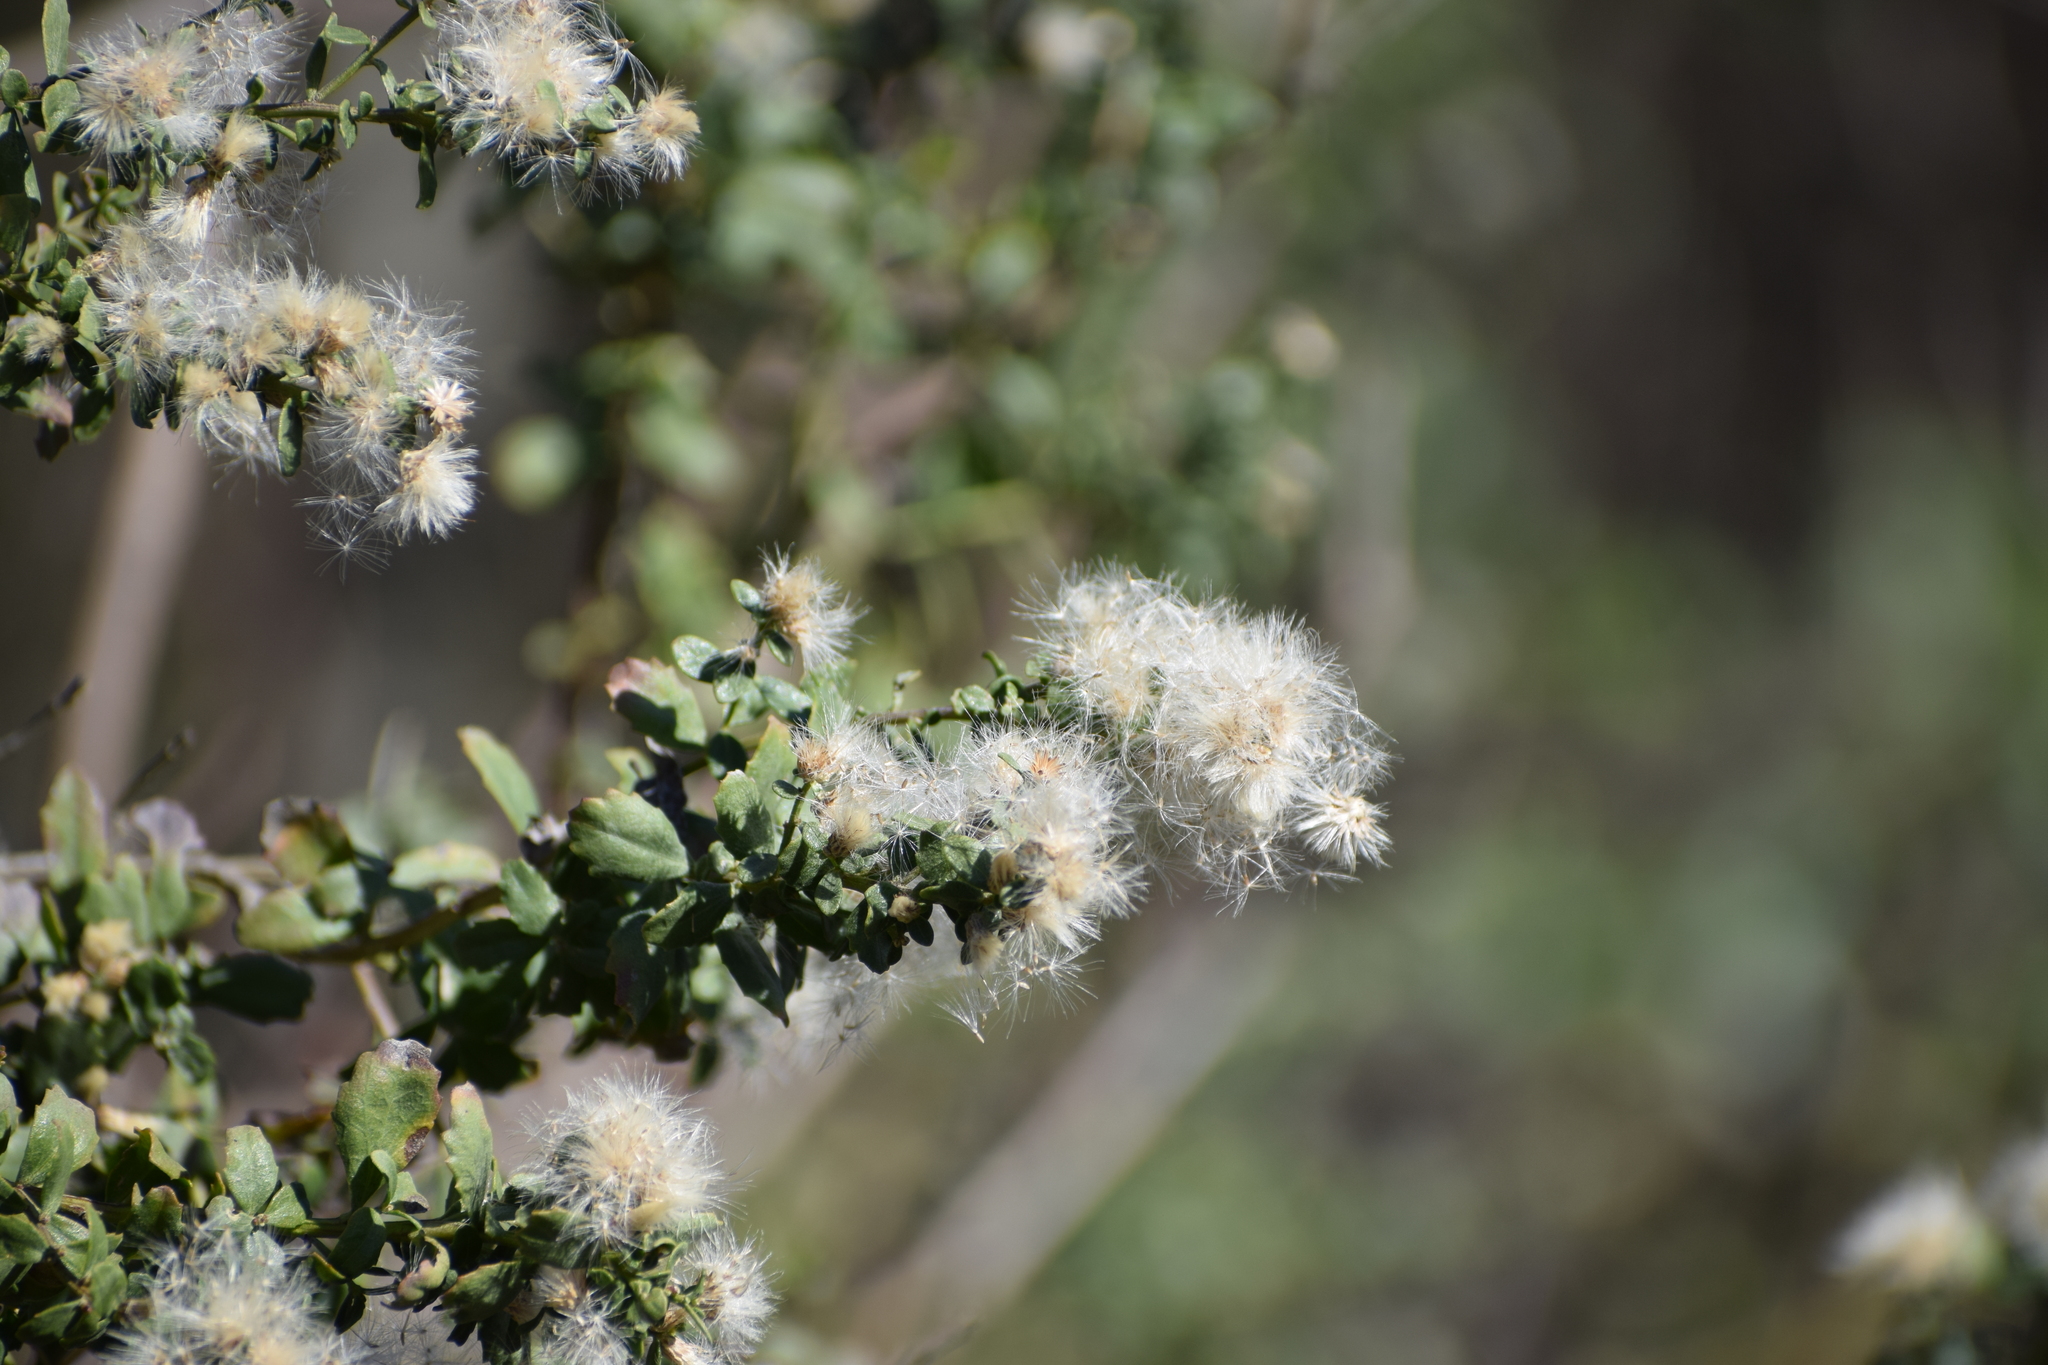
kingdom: Plantae
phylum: Tracheophyta
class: Magnoliopsida
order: Asterales
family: Asteraceae
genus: Baccharis
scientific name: Baccharis pilularis
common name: Coyotebrush
